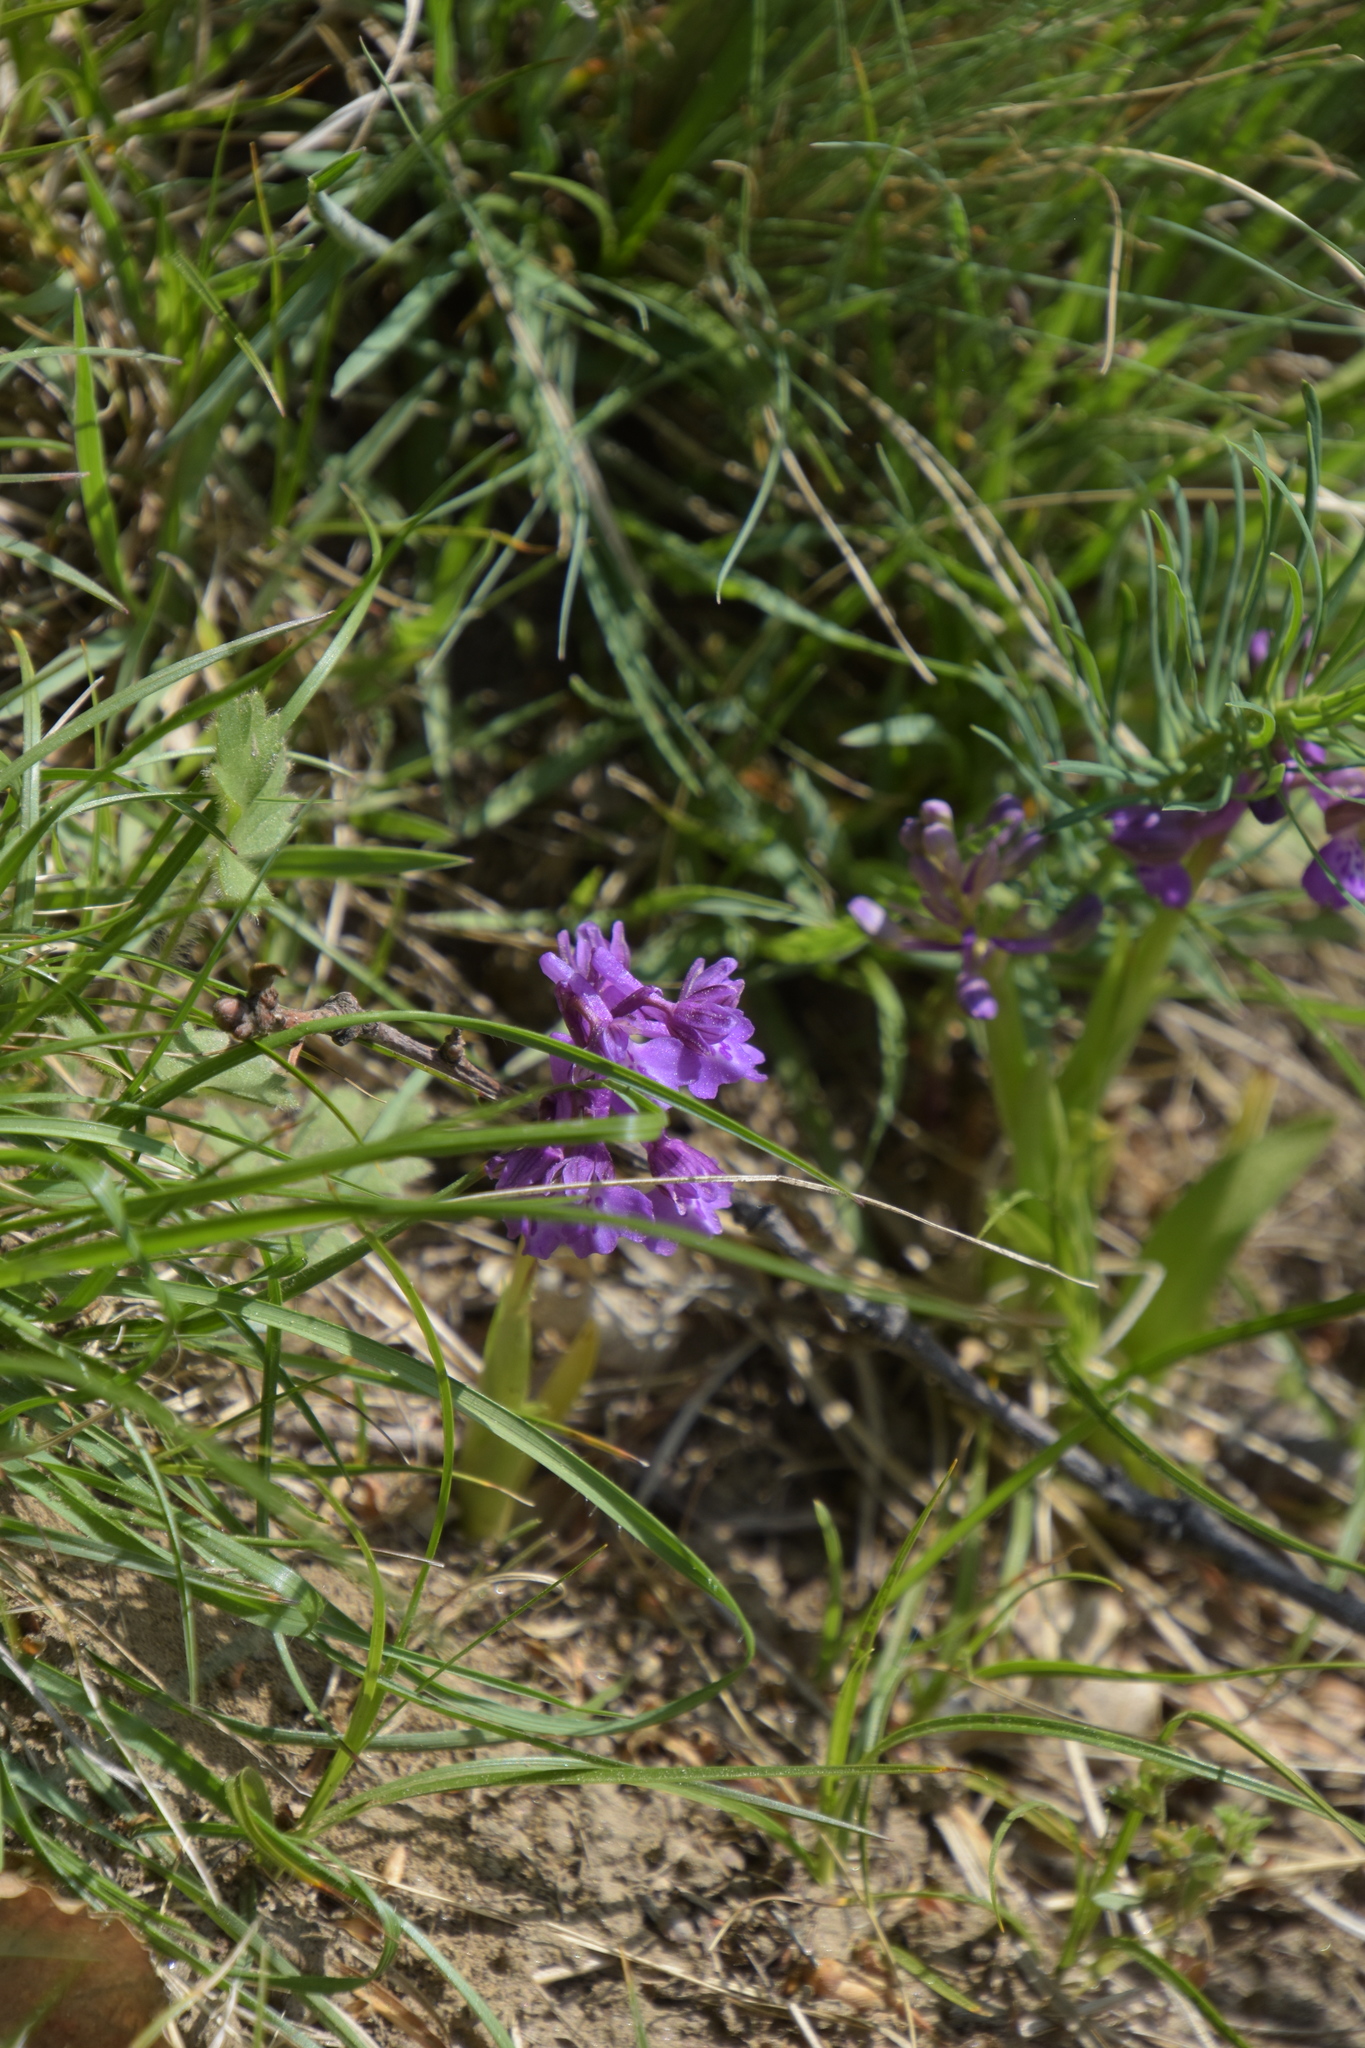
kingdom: Plantae
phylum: Tracheophyta
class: Liliopsida
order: Asparagales
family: Orchidaceae
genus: Anacamptis
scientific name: Anacamptis morio
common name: Green-winged orchid
